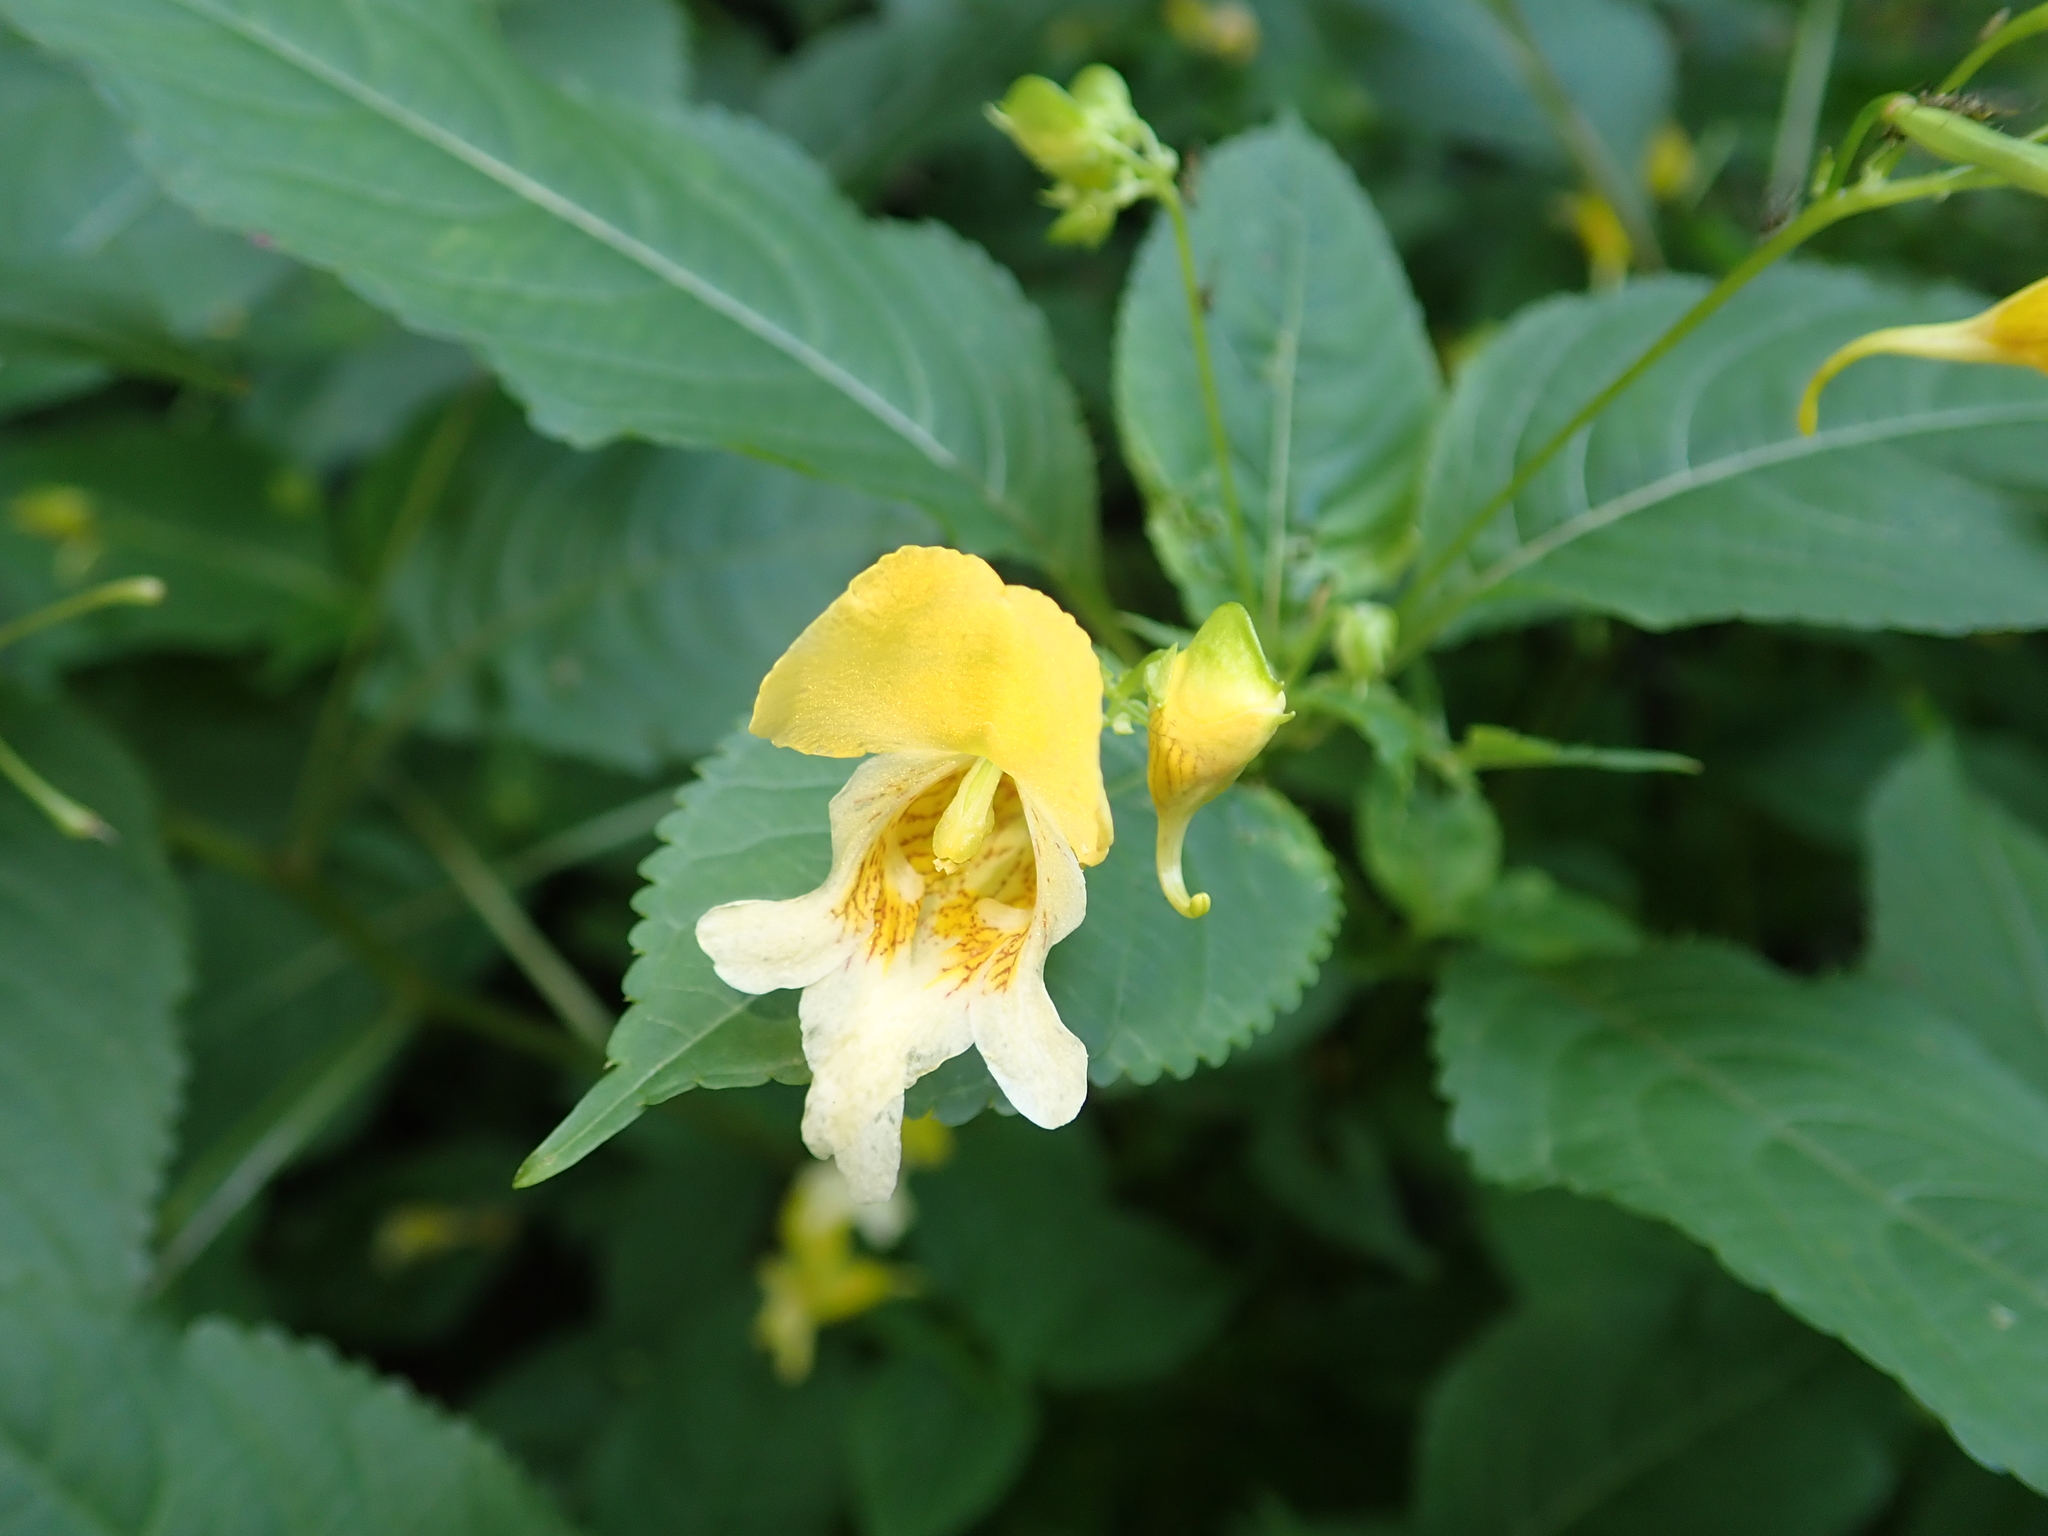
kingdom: Plantae
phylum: Tracheophyta
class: Magnoliopsida
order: Ericales
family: Balsaminaceae
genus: Impatiens
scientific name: Impatiens edgeworthii
